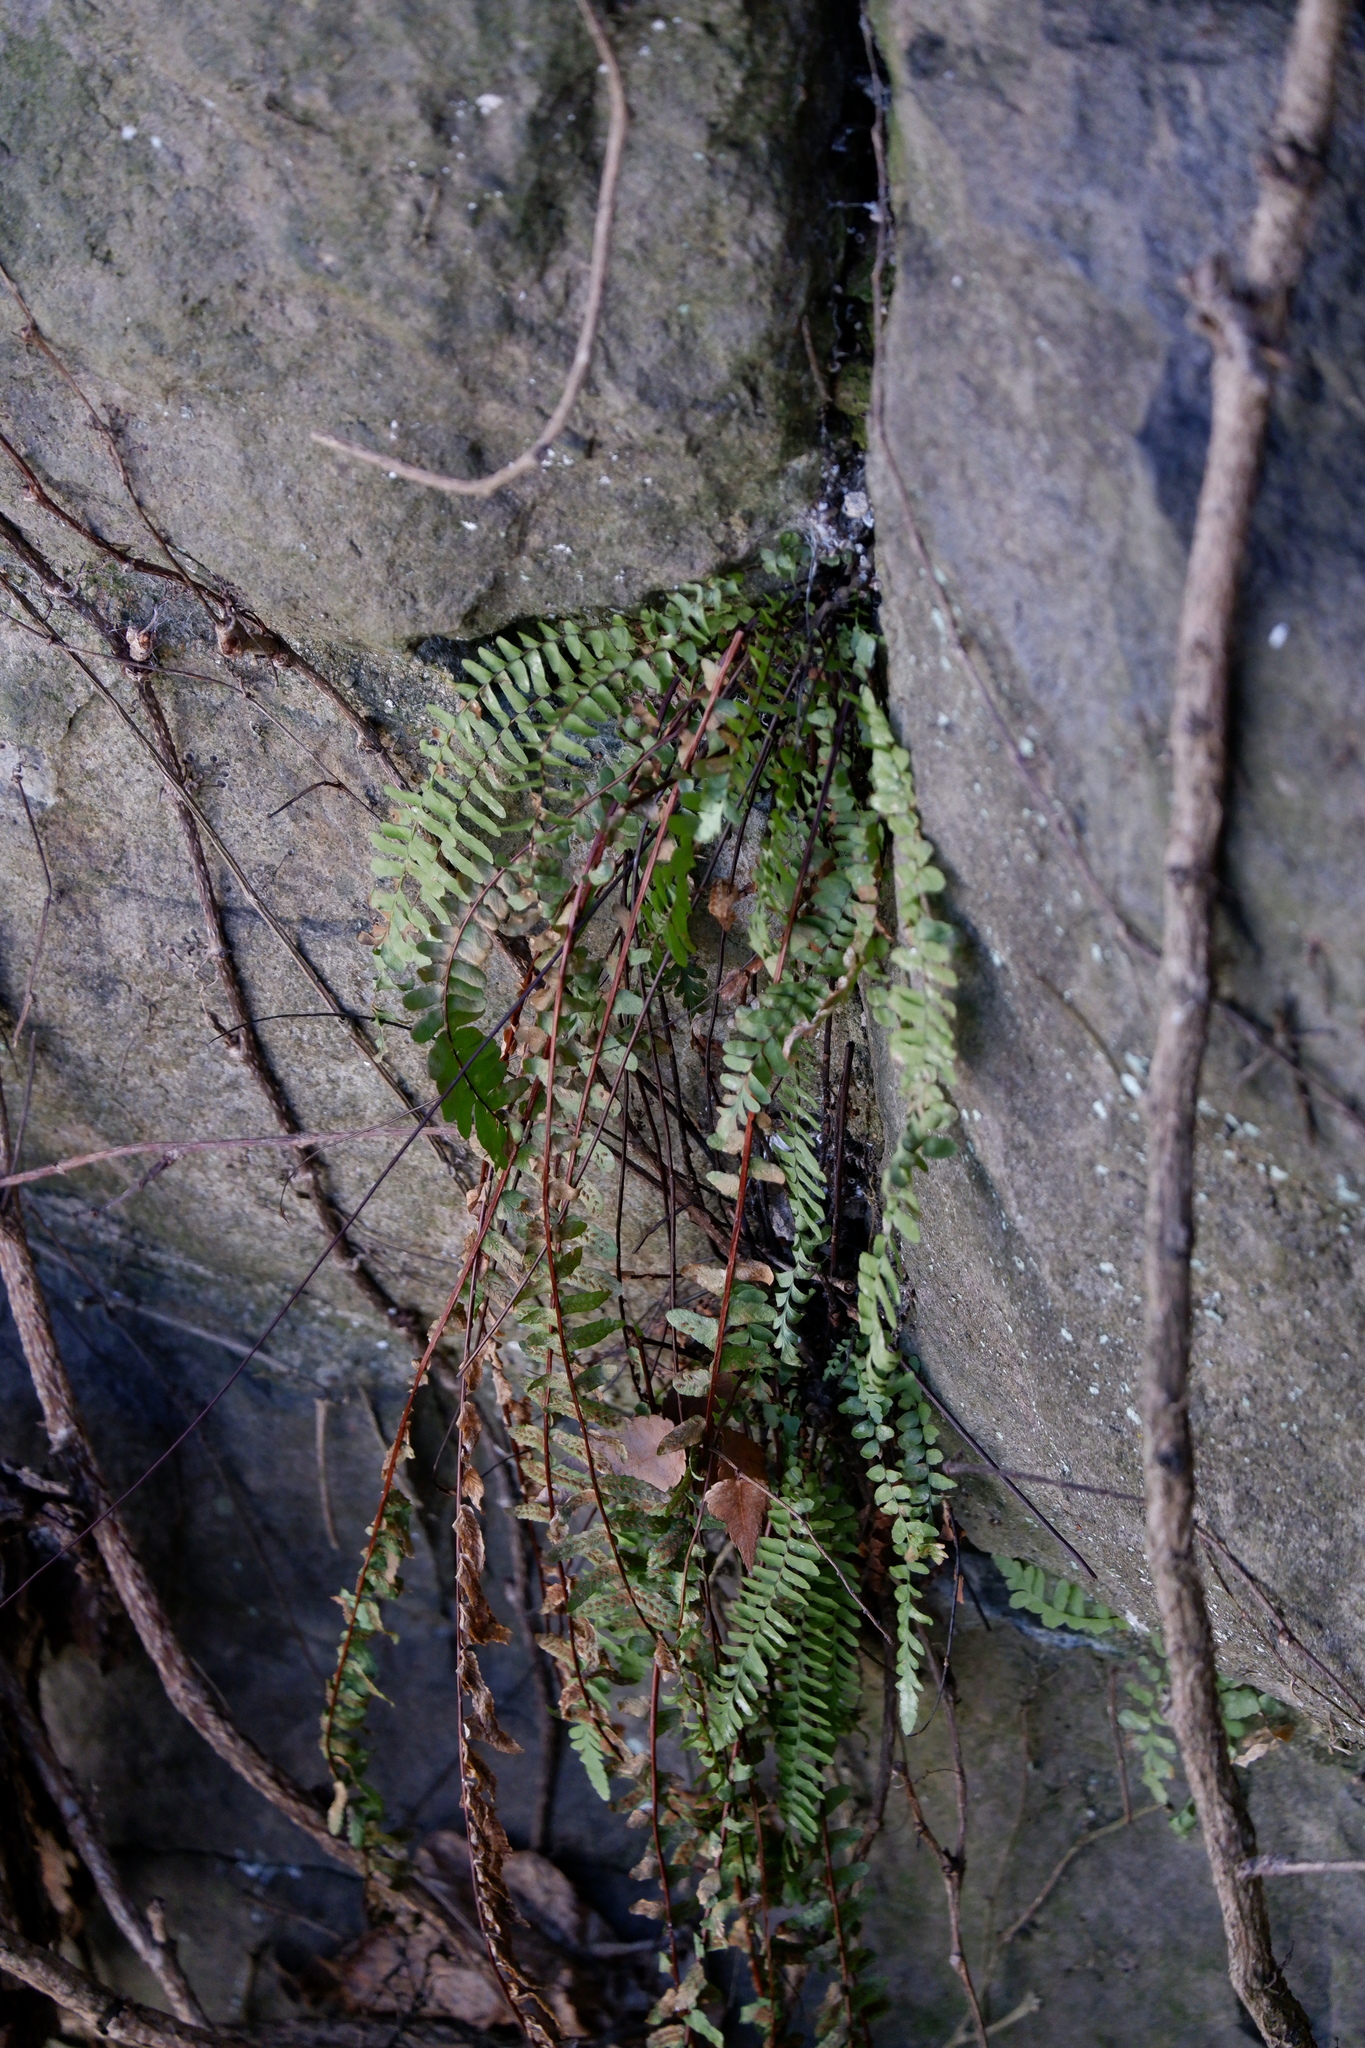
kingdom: Plantae
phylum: Tracheophyta
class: Polypodiopsida
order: Polypodiales
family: Aspleniaceae
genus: Asplenium
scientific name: Asplenium platyneuron
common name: Ebony spleenwort
